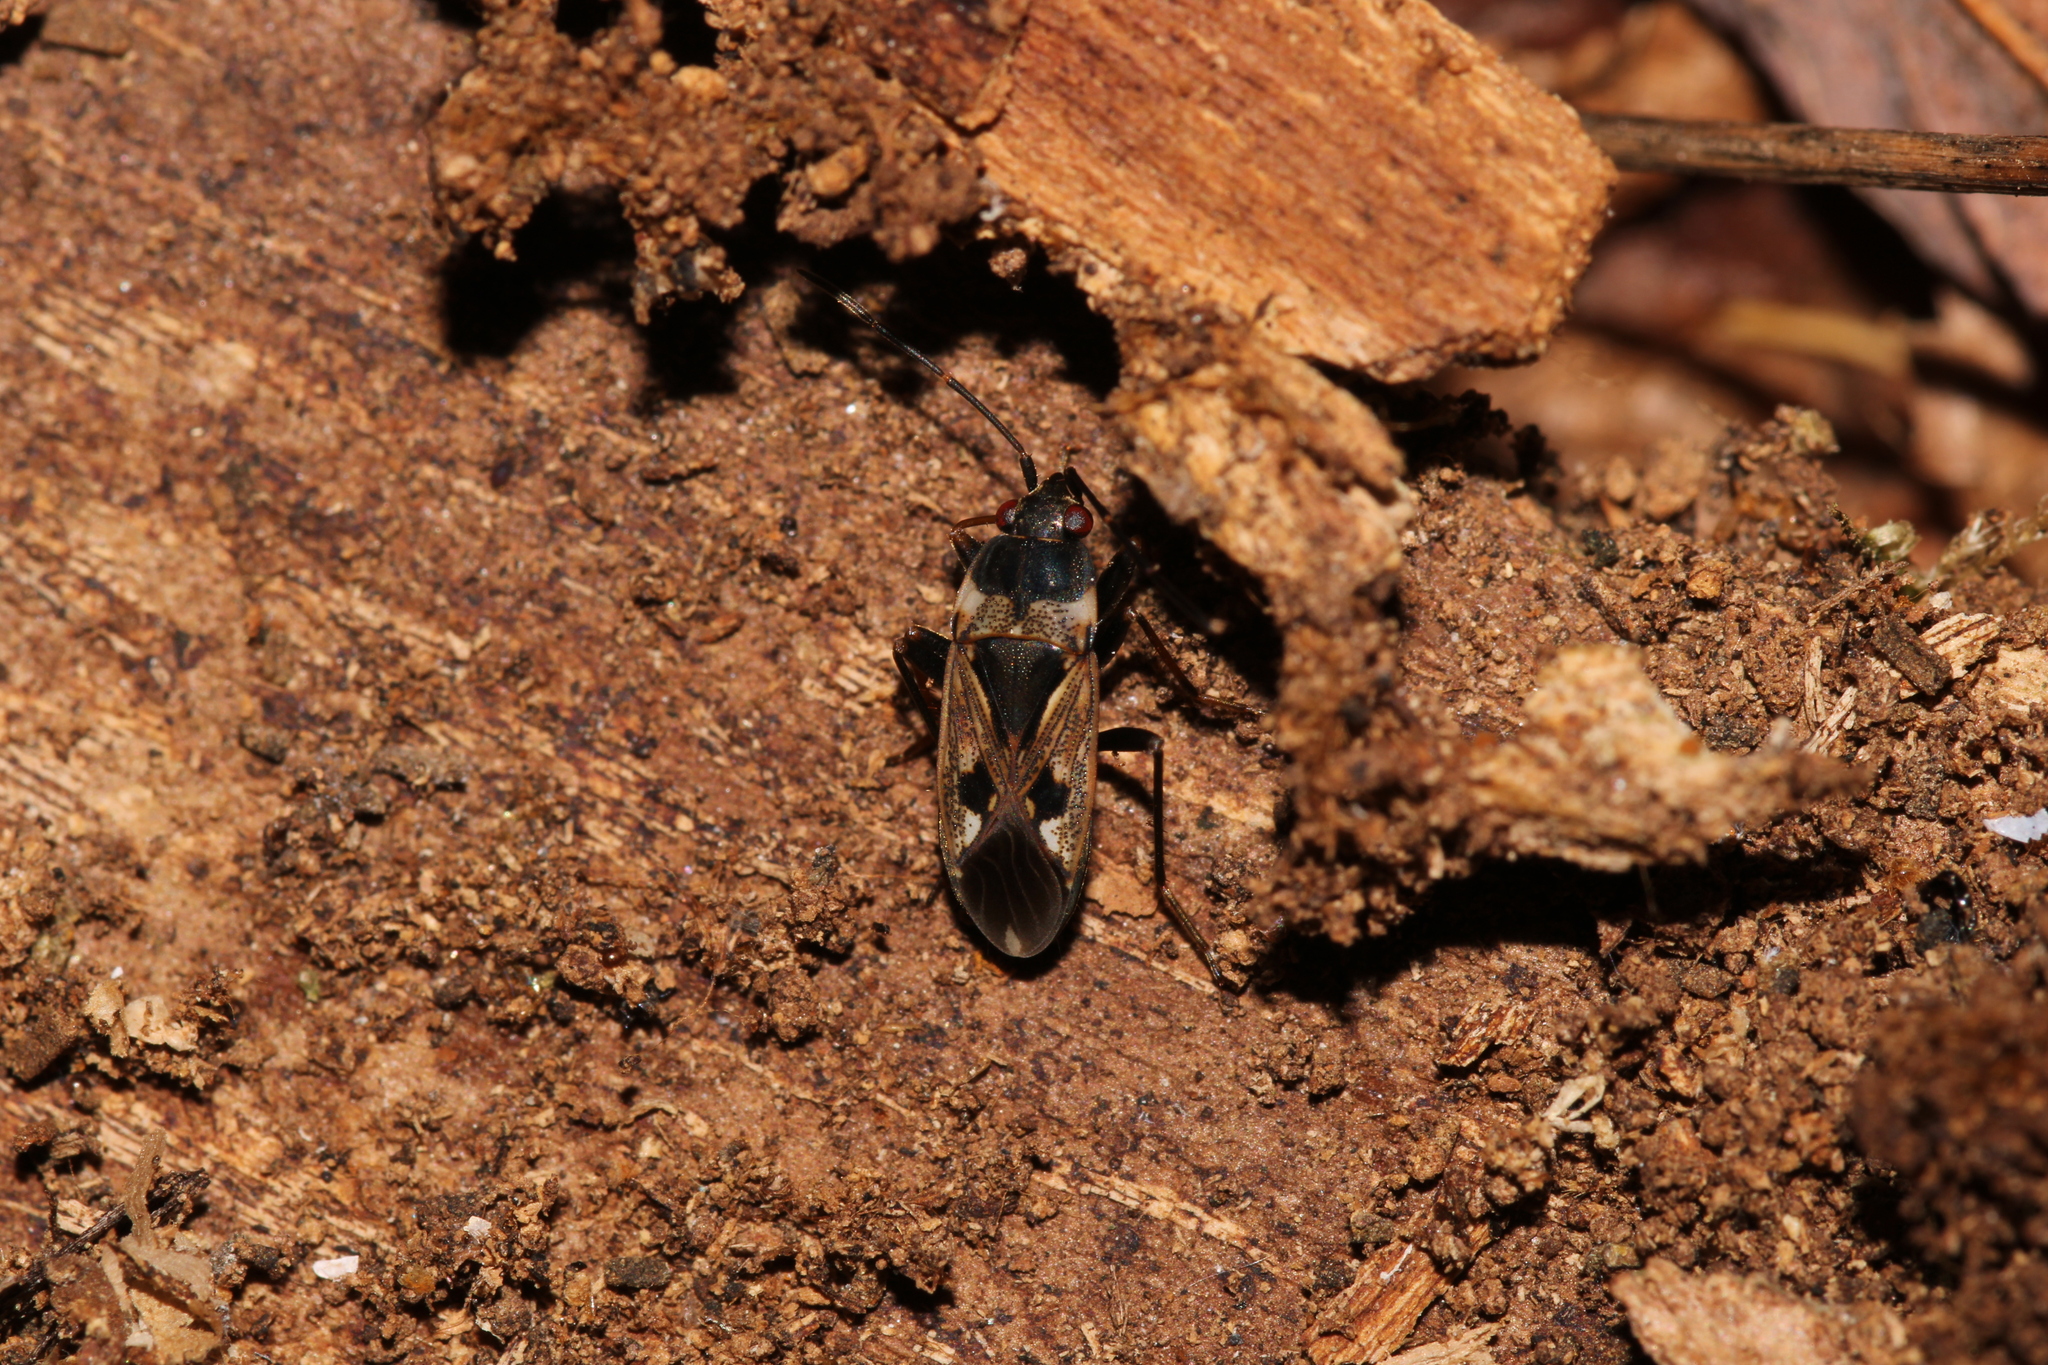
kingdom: Animalia
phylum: Arthropoda
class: Insecta
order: Hemiptera
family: Rhyparochromidae
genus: Rhyparochromus
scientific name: Rhyparochromus vulgaris
